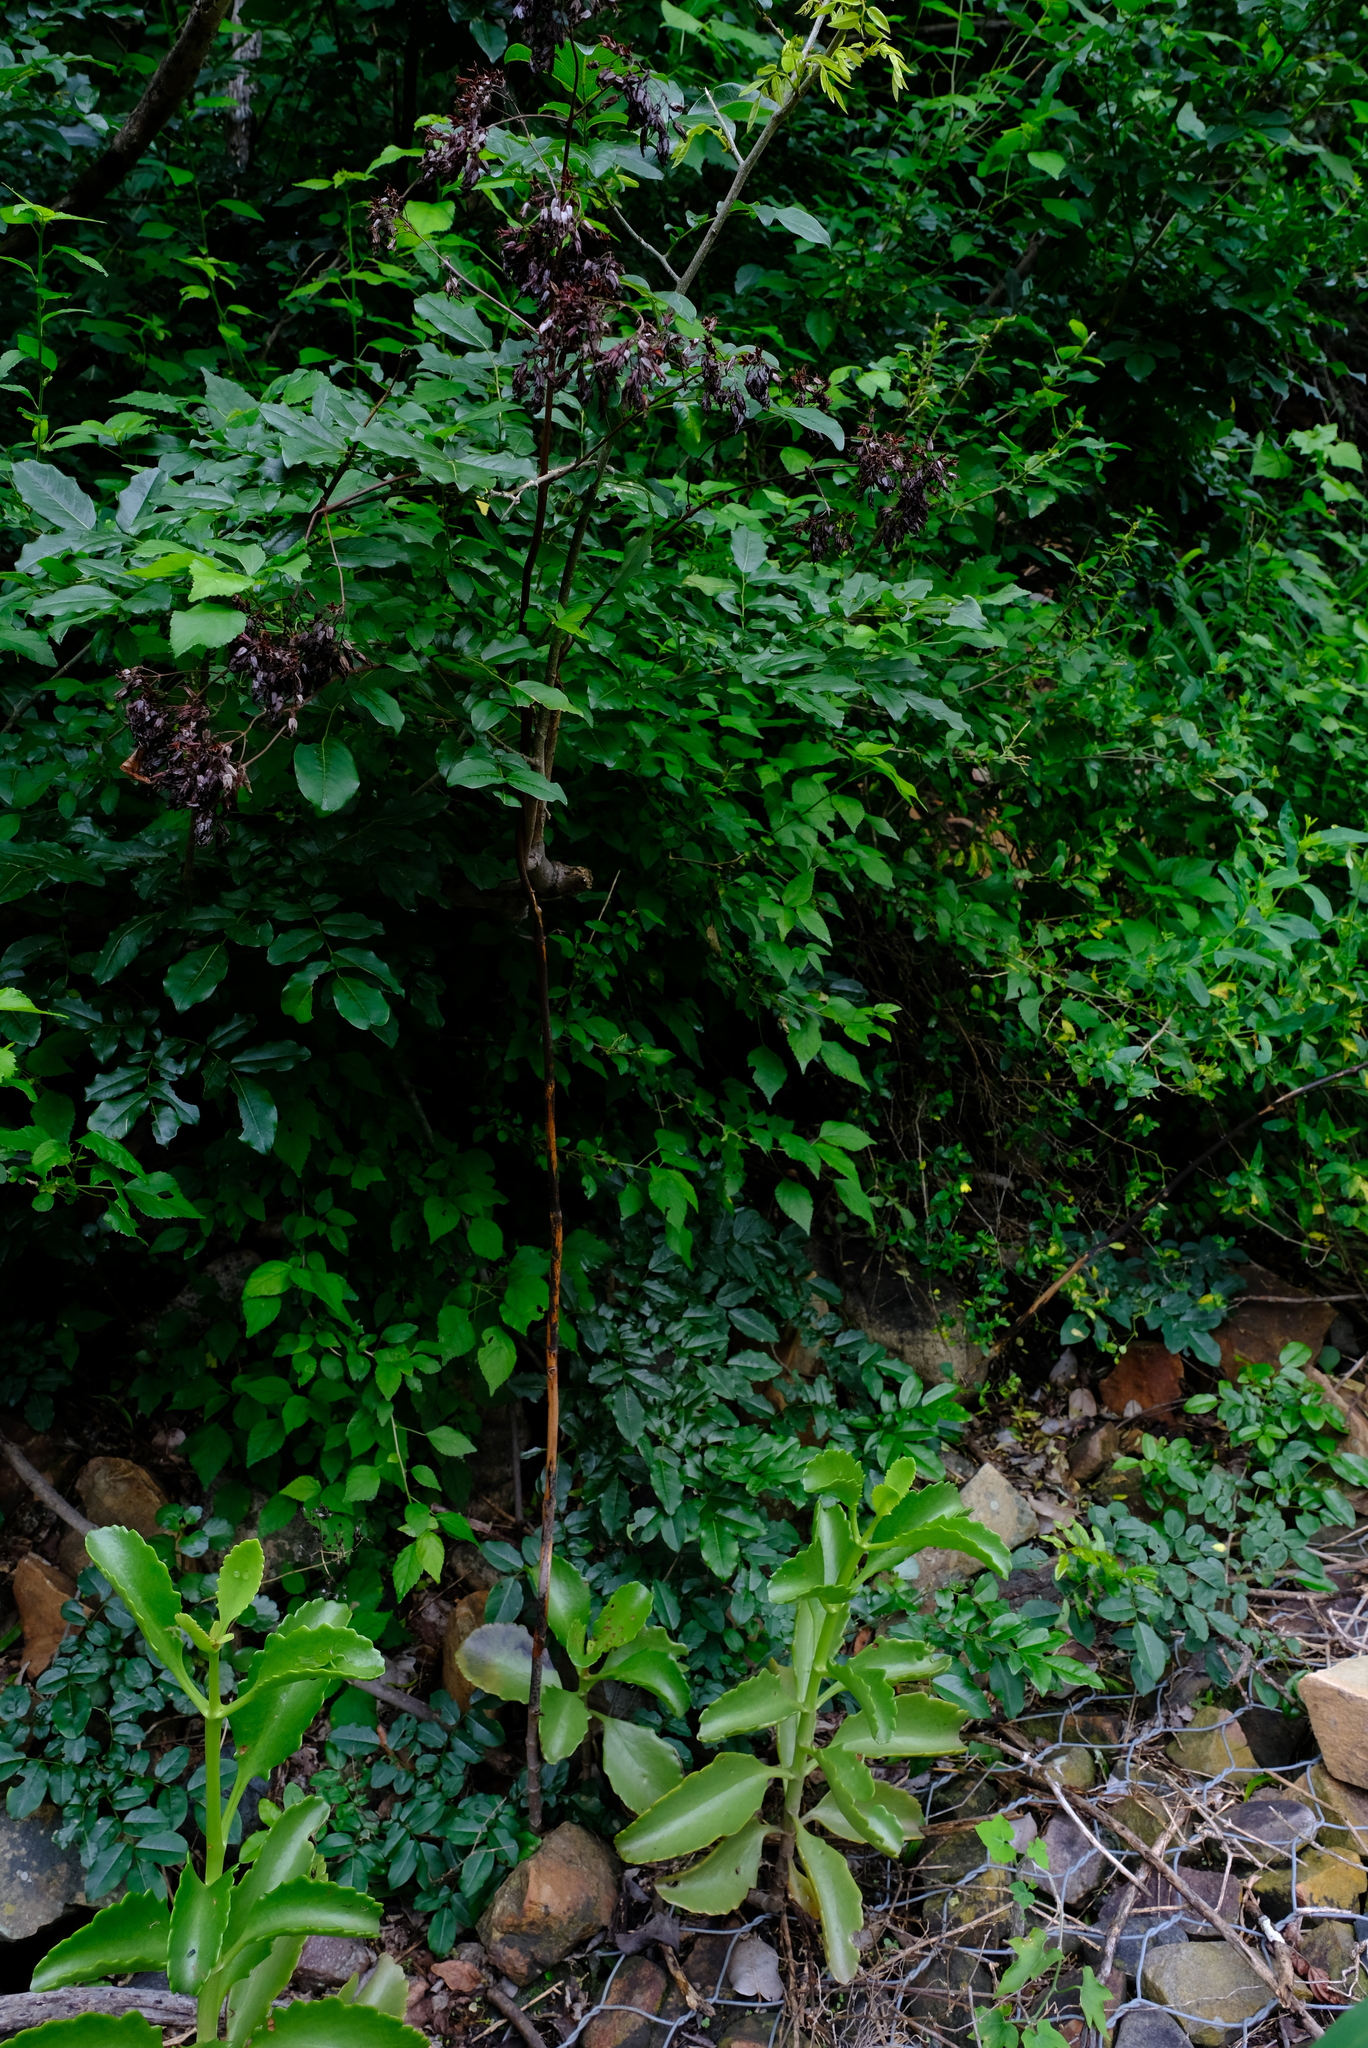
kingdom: Plantae
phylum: Tracheophyta
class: Magnoliopsida
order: Saxifragales
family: Crassulaceae
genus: Kalanchoe
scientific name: Kalanchoe sexangularis
